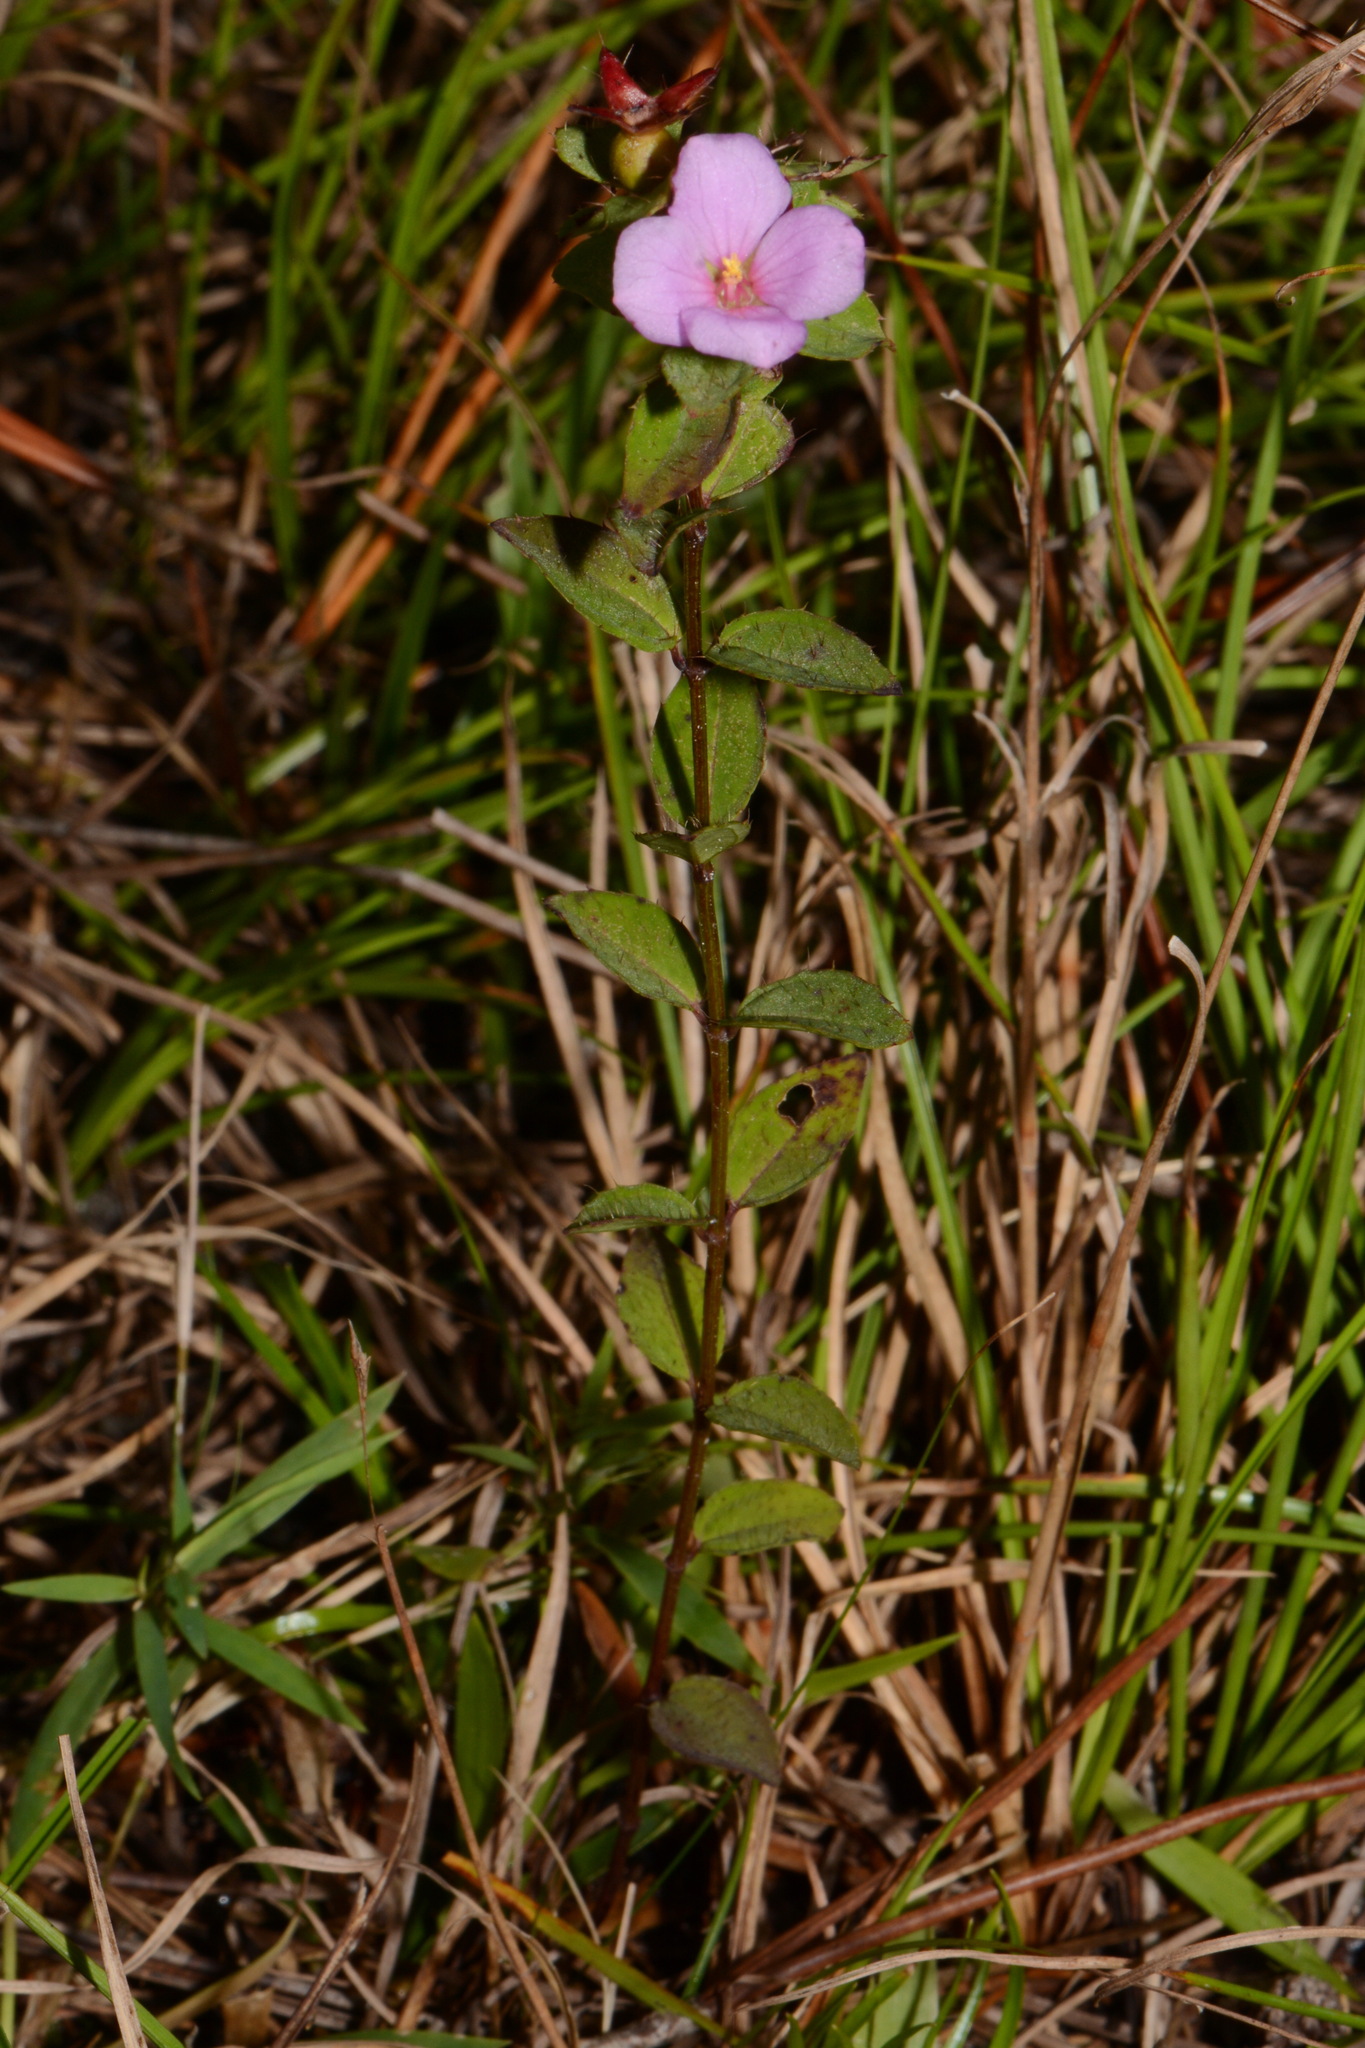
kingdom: Plantae
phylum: Tracheophyta
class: Magnoliopsida
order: Myrtales
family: Melastomataceae
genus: Rhexia
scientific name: Rhexia petiolata
